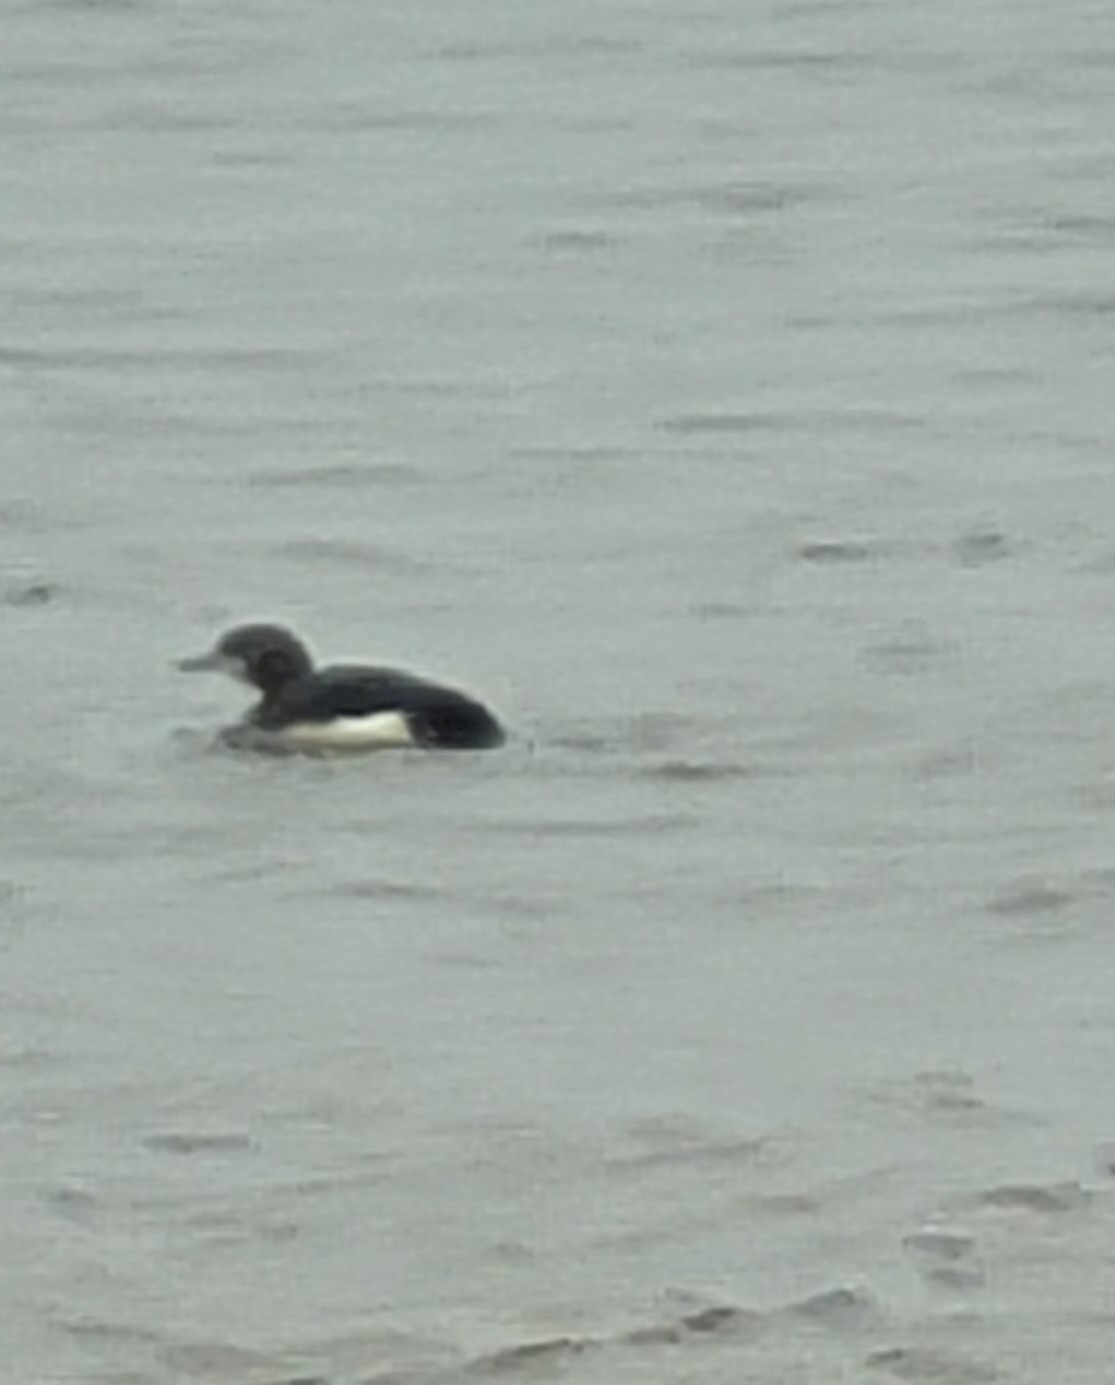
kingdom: Animalia
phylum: Chordata
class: Aves
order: Gaviiformes
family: Gaviidae
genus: Gavia
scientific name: Gavia arctica
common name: Black-throated loon
